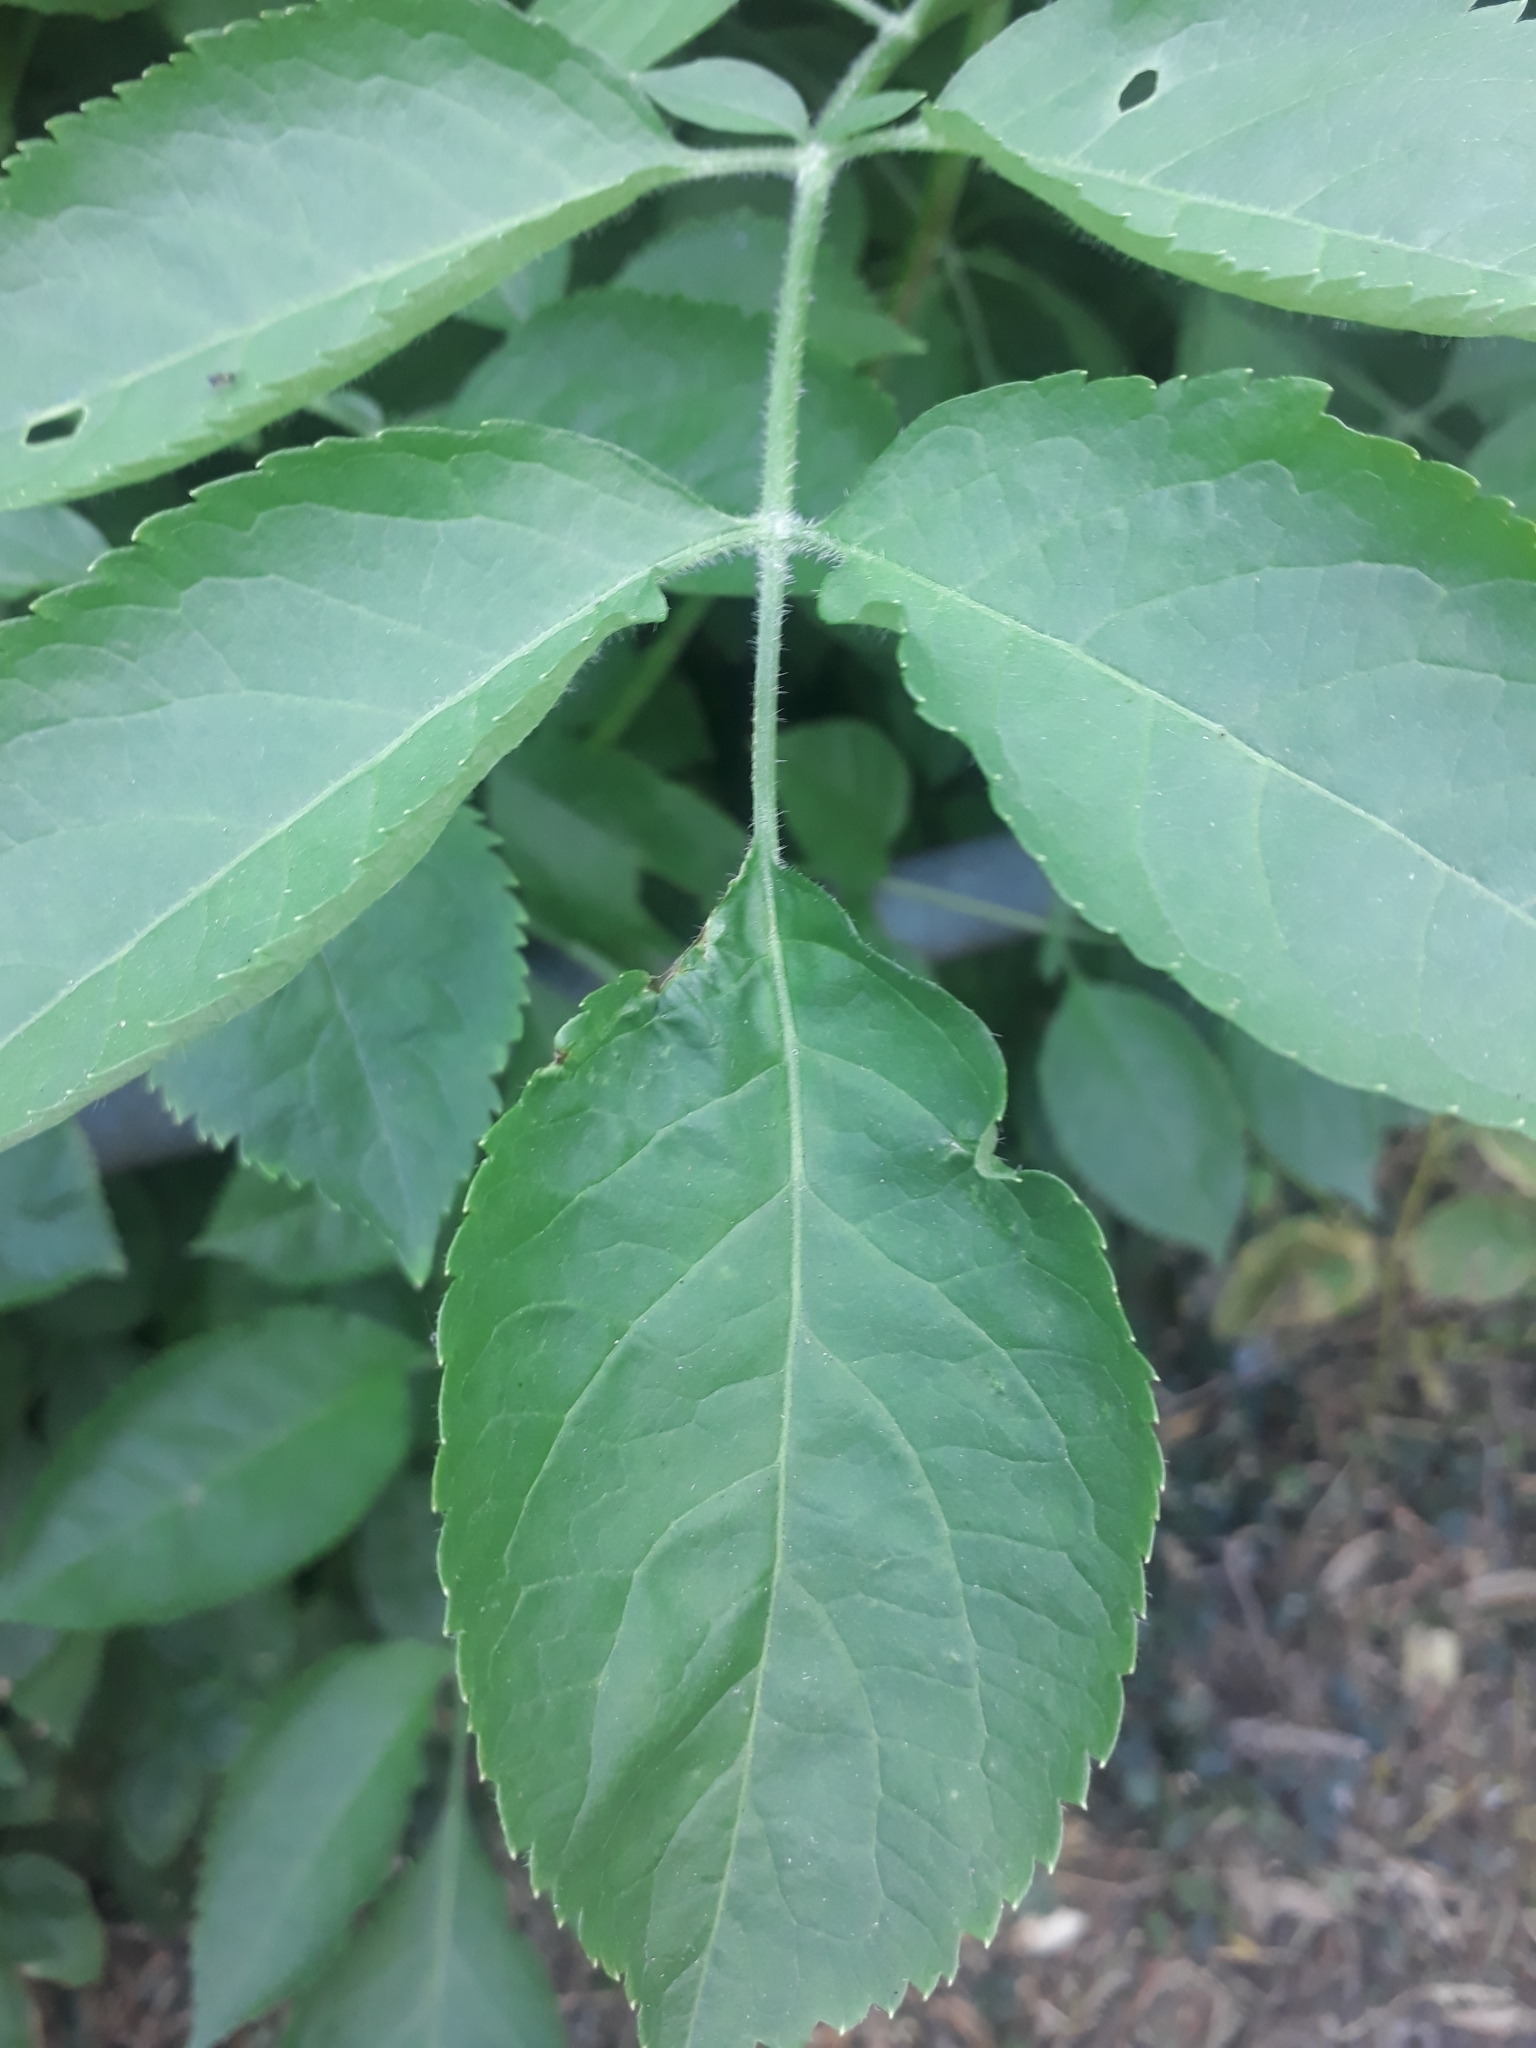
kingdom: Plantae
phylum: Tracheophyta
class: Magnoliopsida
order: Dipsacales
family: Viburnaceae
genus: Sambucus
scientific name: Sambucus nigra
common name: Elder
